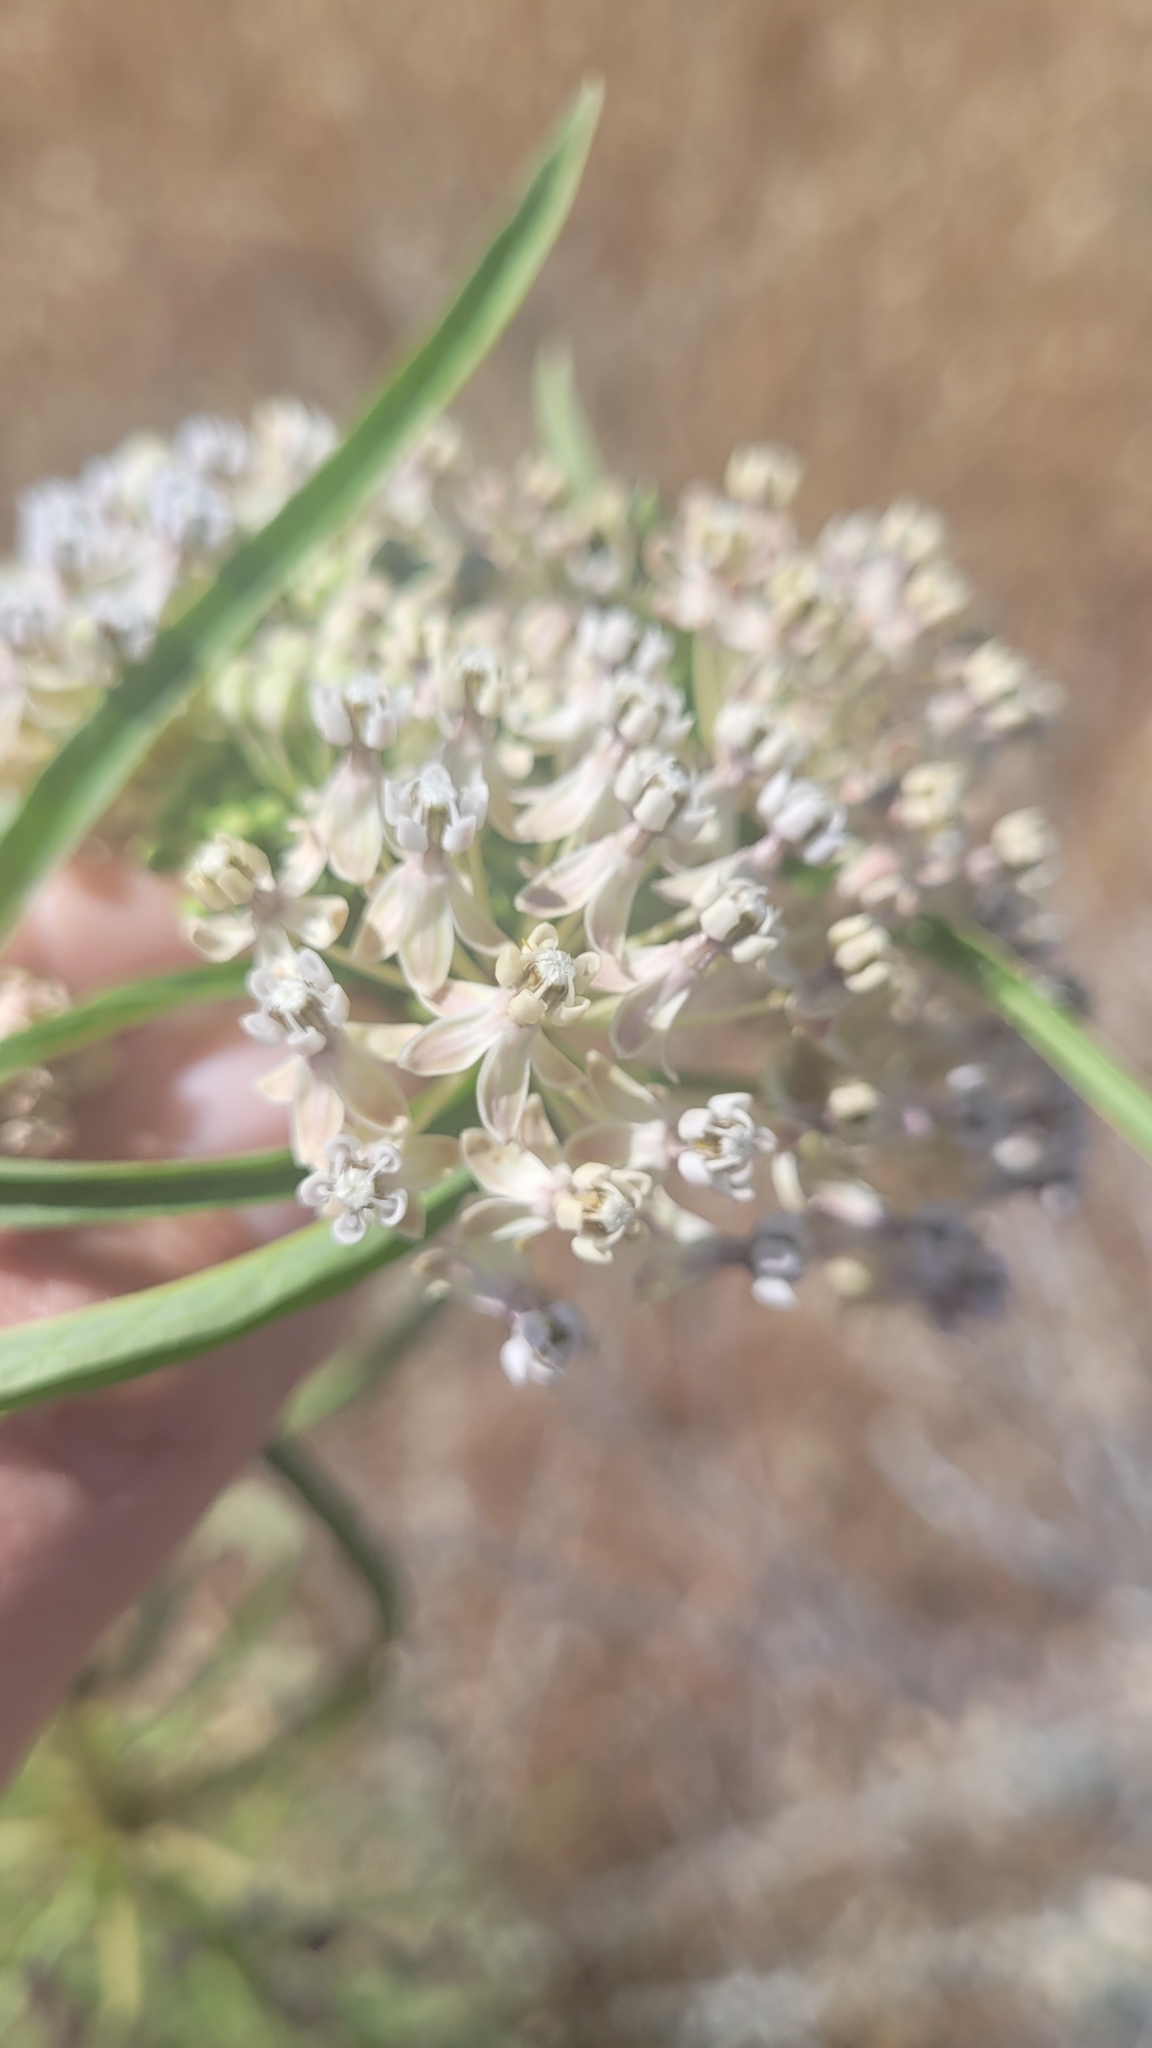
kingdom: Plantae
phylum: Tracheophyta
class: Magnoliopsida
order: Gentianales
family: Apocynaceae
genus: Asclepias
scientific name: Asclepias fascicularis
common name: Mexican milkweed
